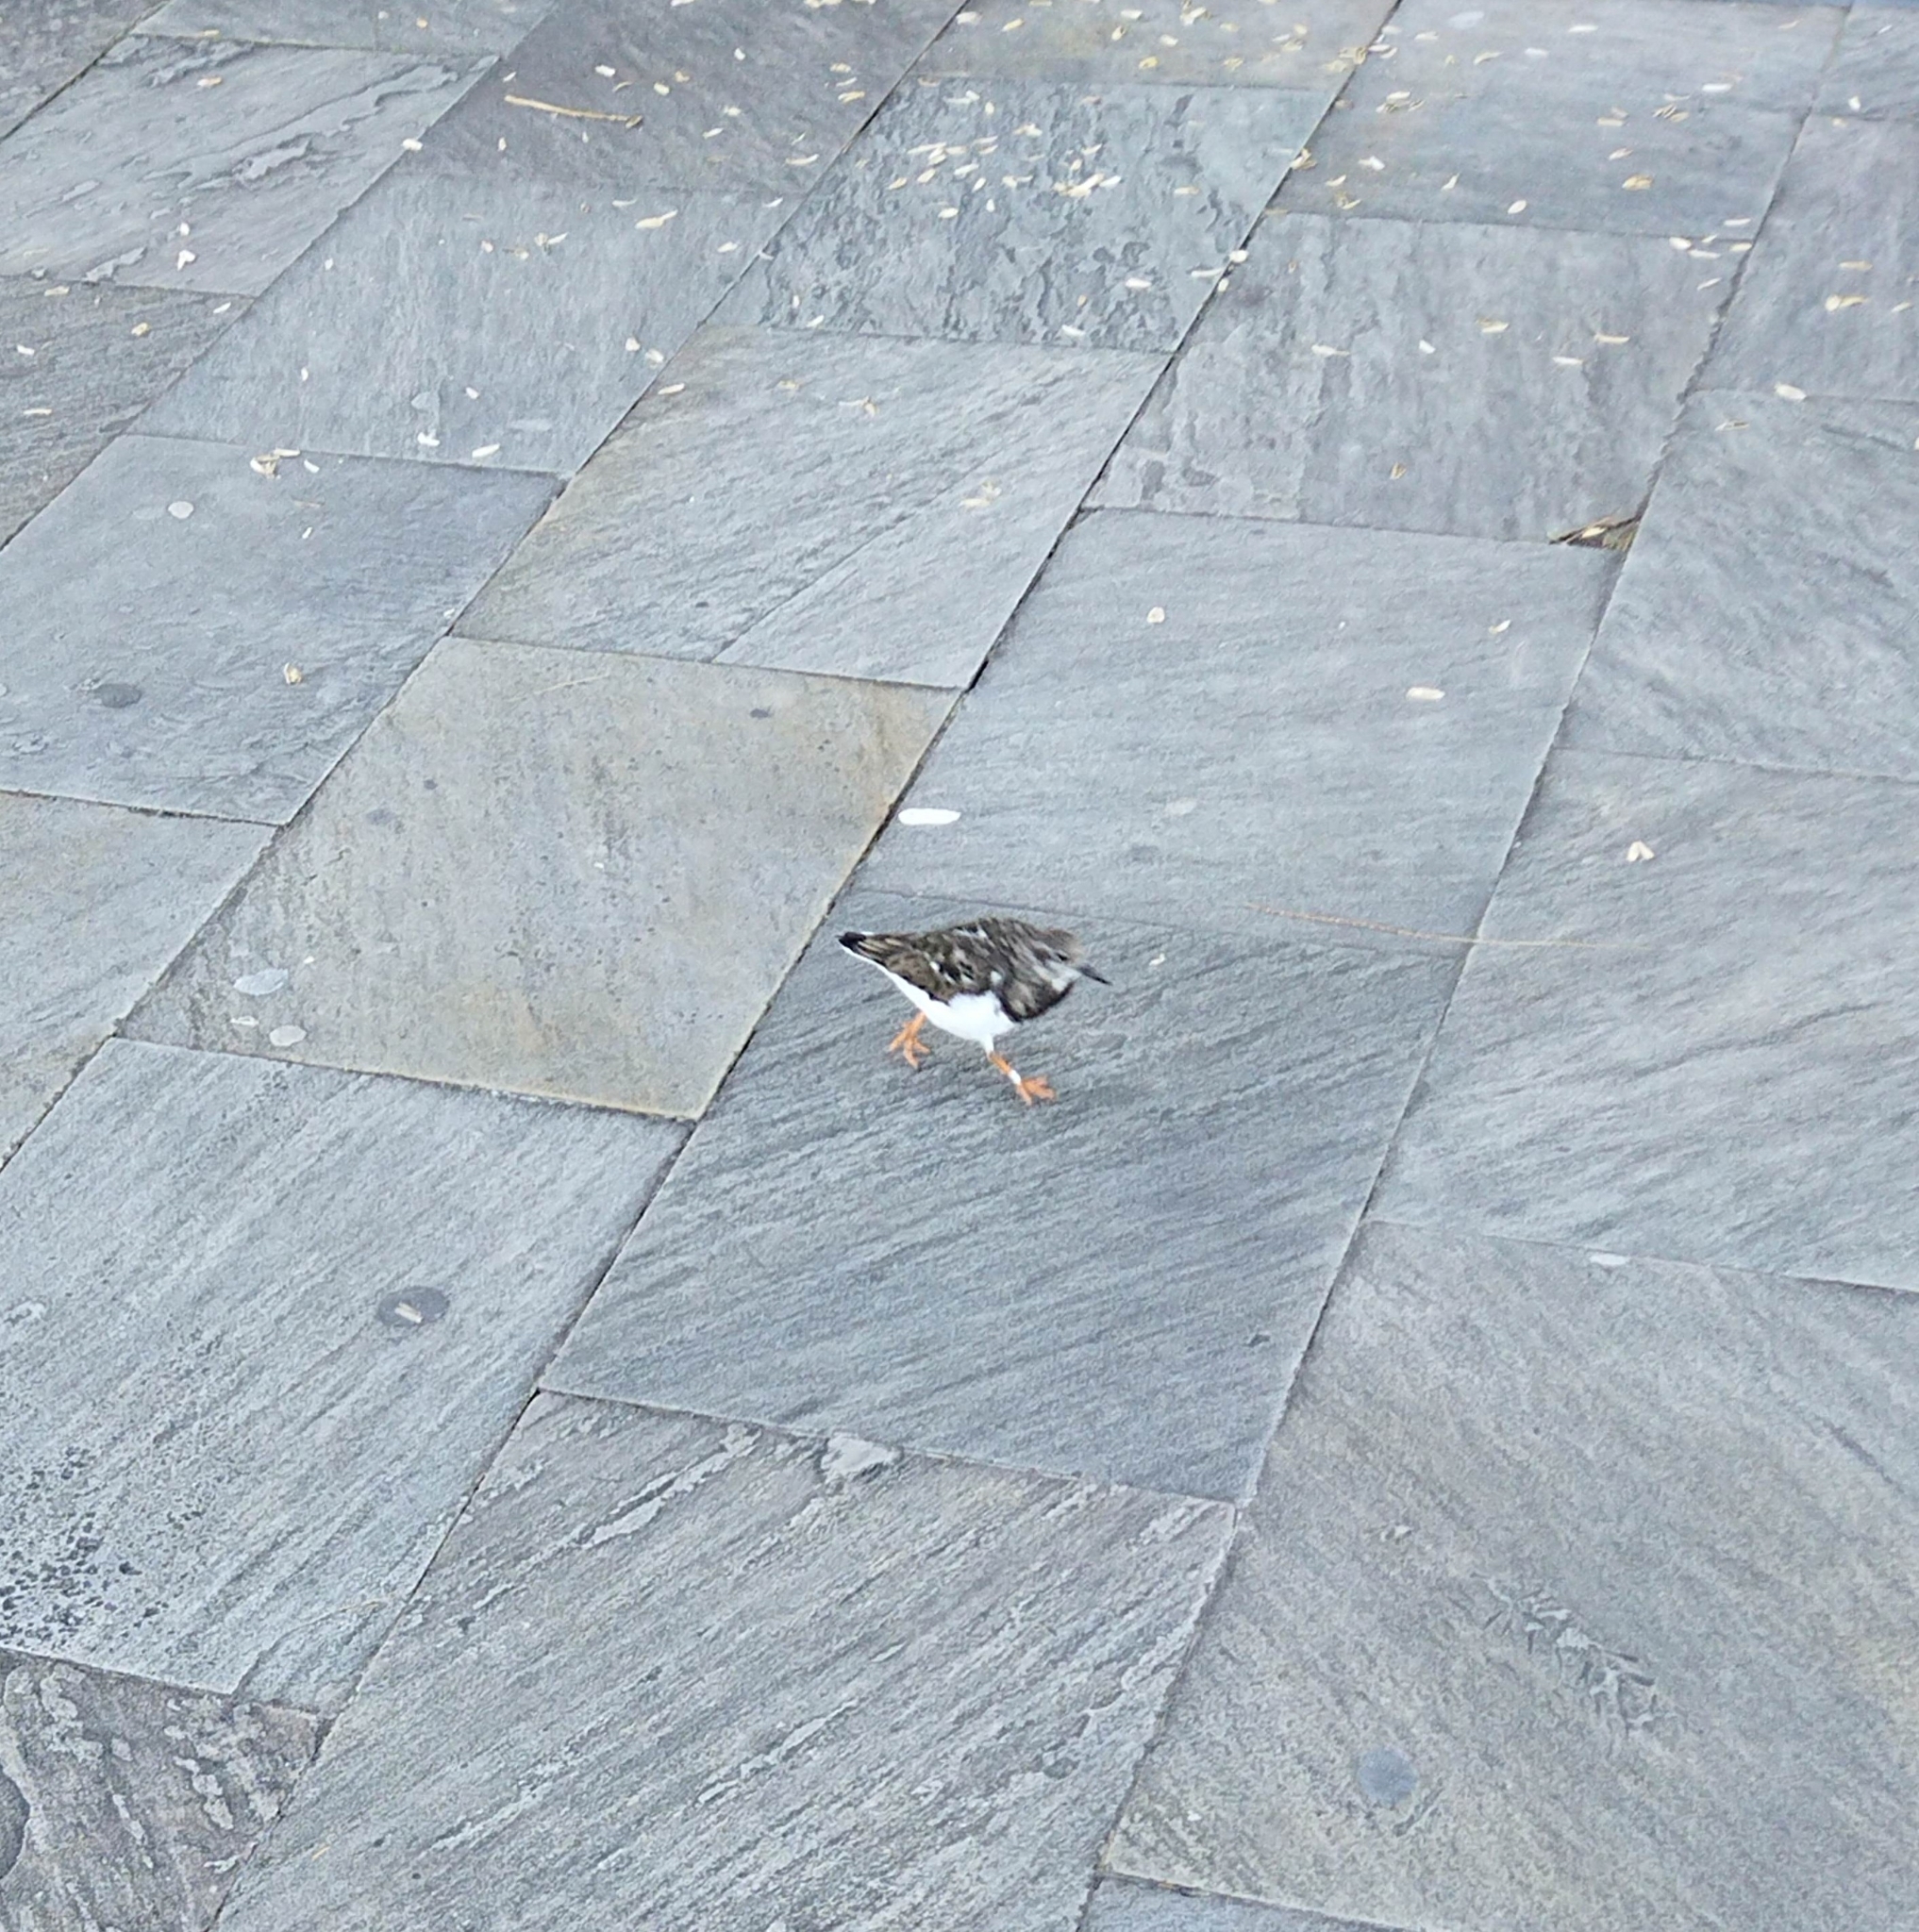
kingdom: Animalia
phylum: Chordata
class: Aves
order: Charadriiformes
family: Scolopacidae
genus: Arenaria
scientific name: Arenaria interpres
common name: Ruddy turnstone
